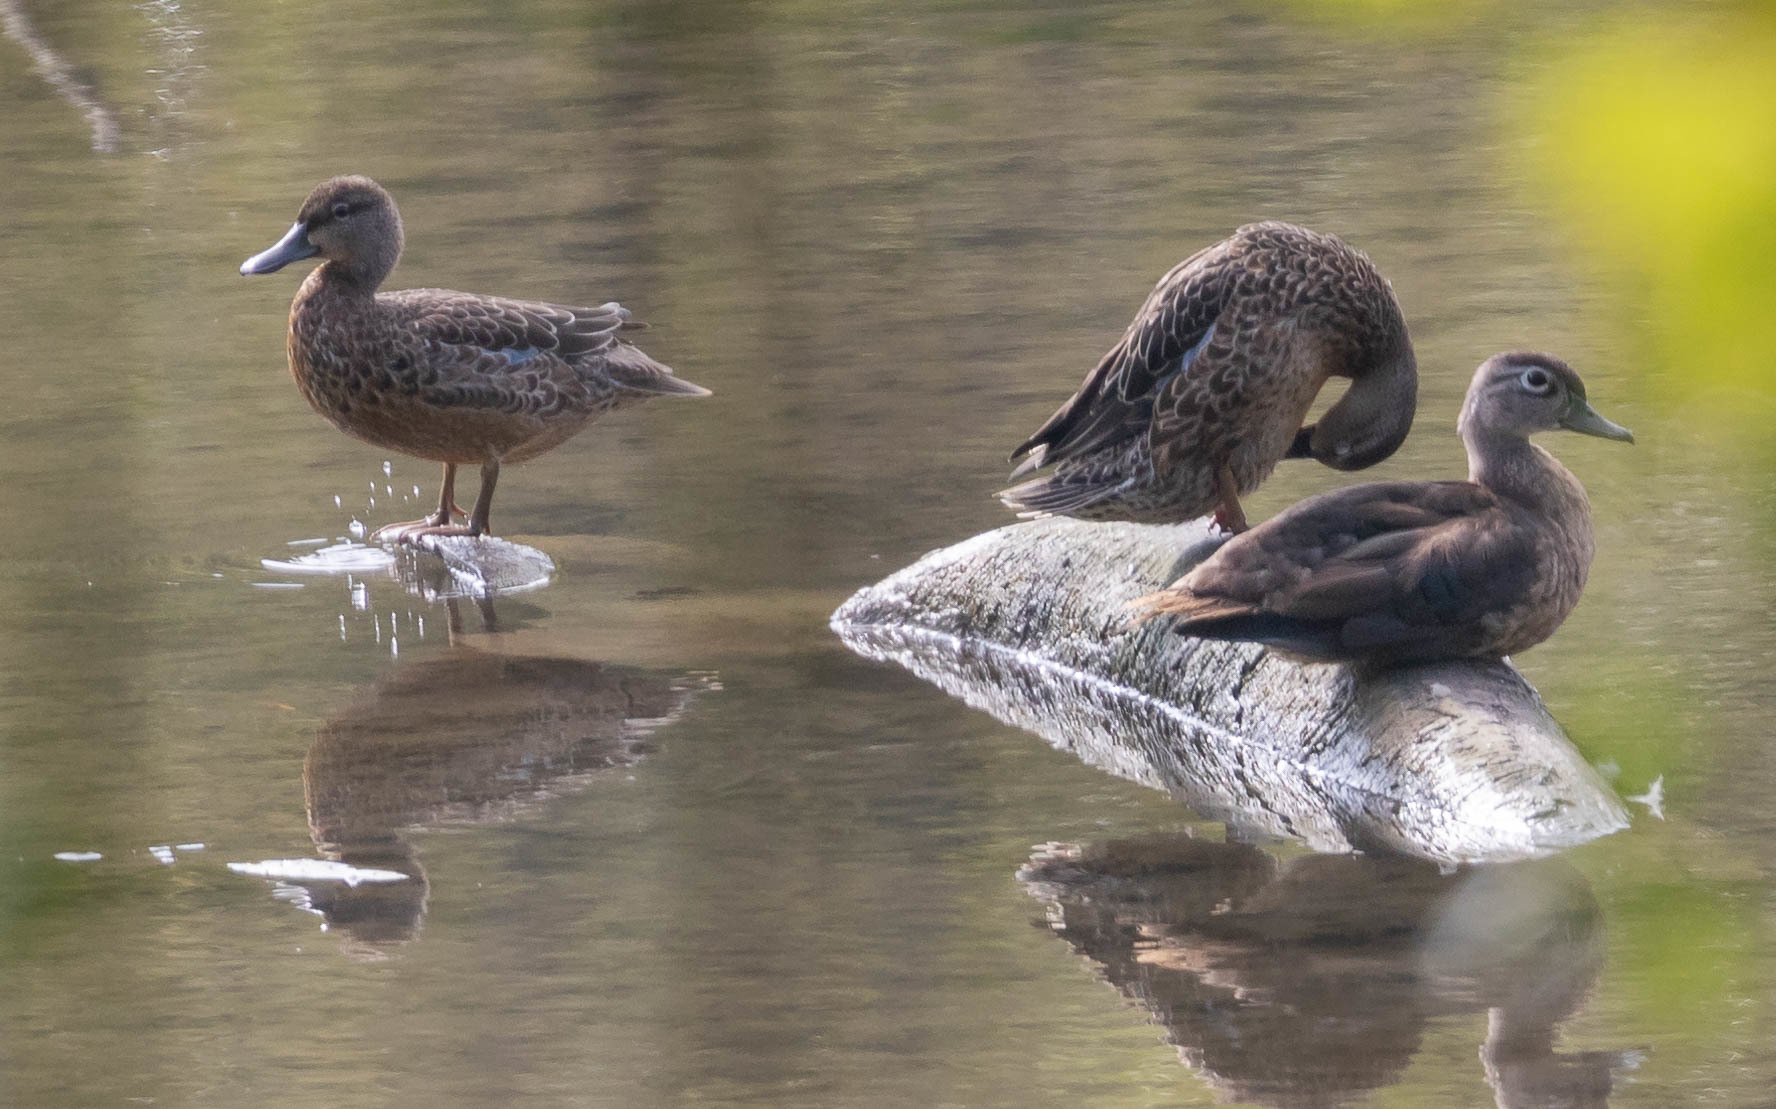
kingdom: Animalia
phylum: Chordata
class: Aves
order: Anseriformes
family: Anatidae
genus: Spatula
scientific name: Spatula discors
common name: Blue-winged teal
